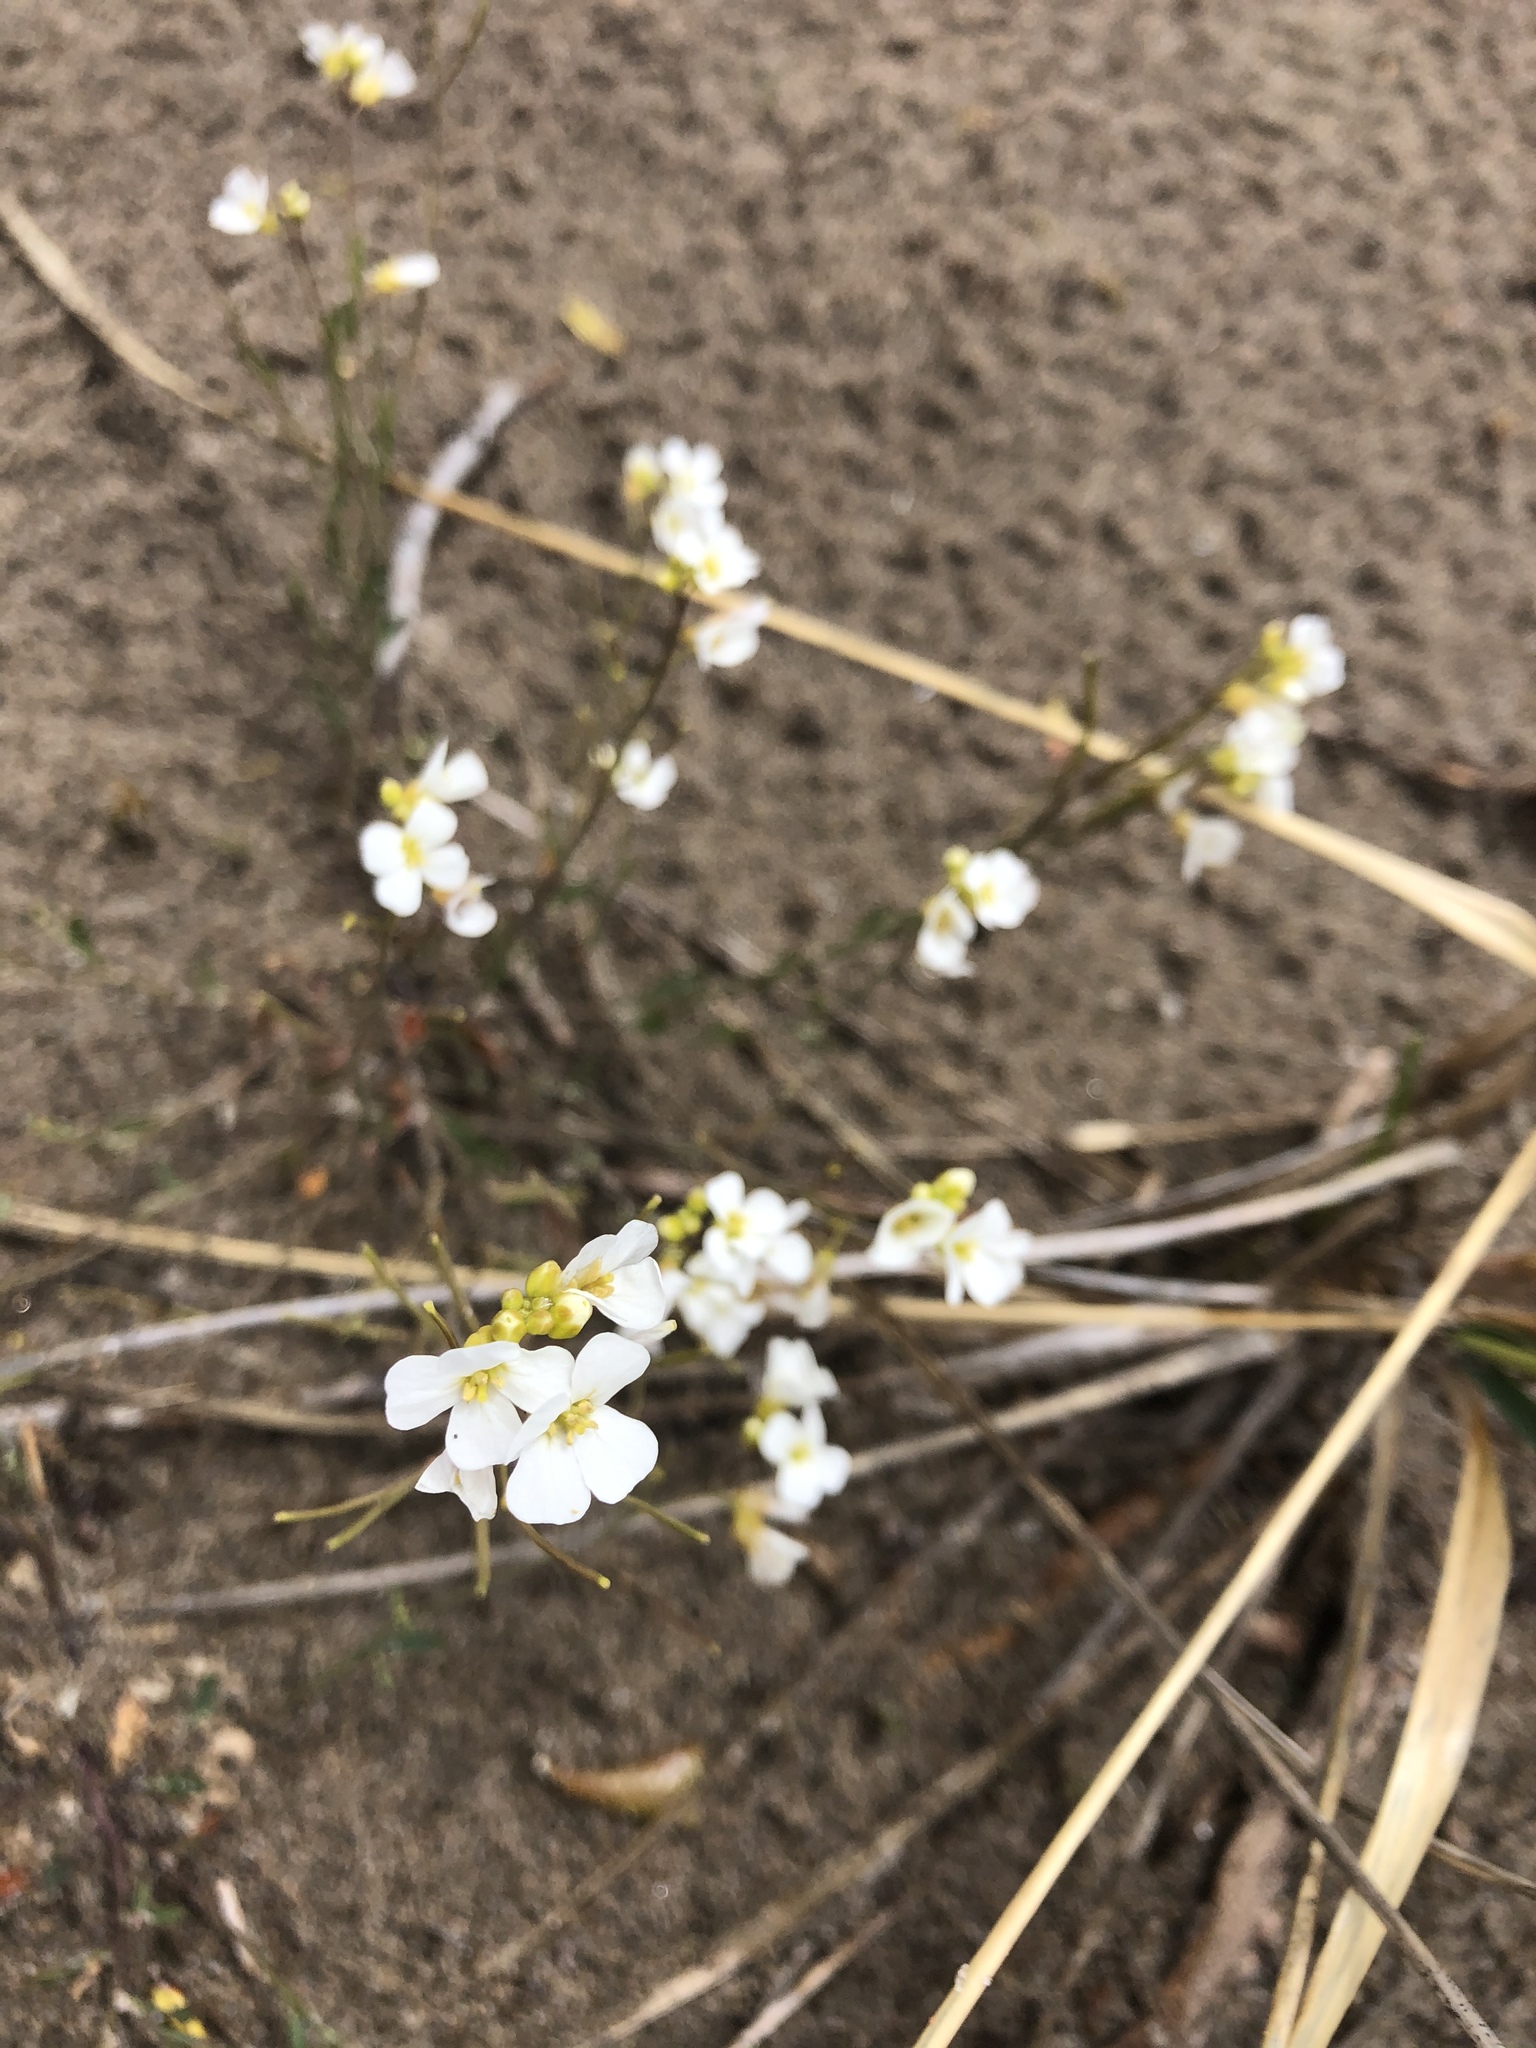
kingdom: Plantae
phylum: Tracheophyta
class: Magnoliopsida
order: Brassicales
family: Brassicaceae
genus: Arabidopsis
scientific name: Arabidopsis lyrata
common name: Lyrate rockcress
